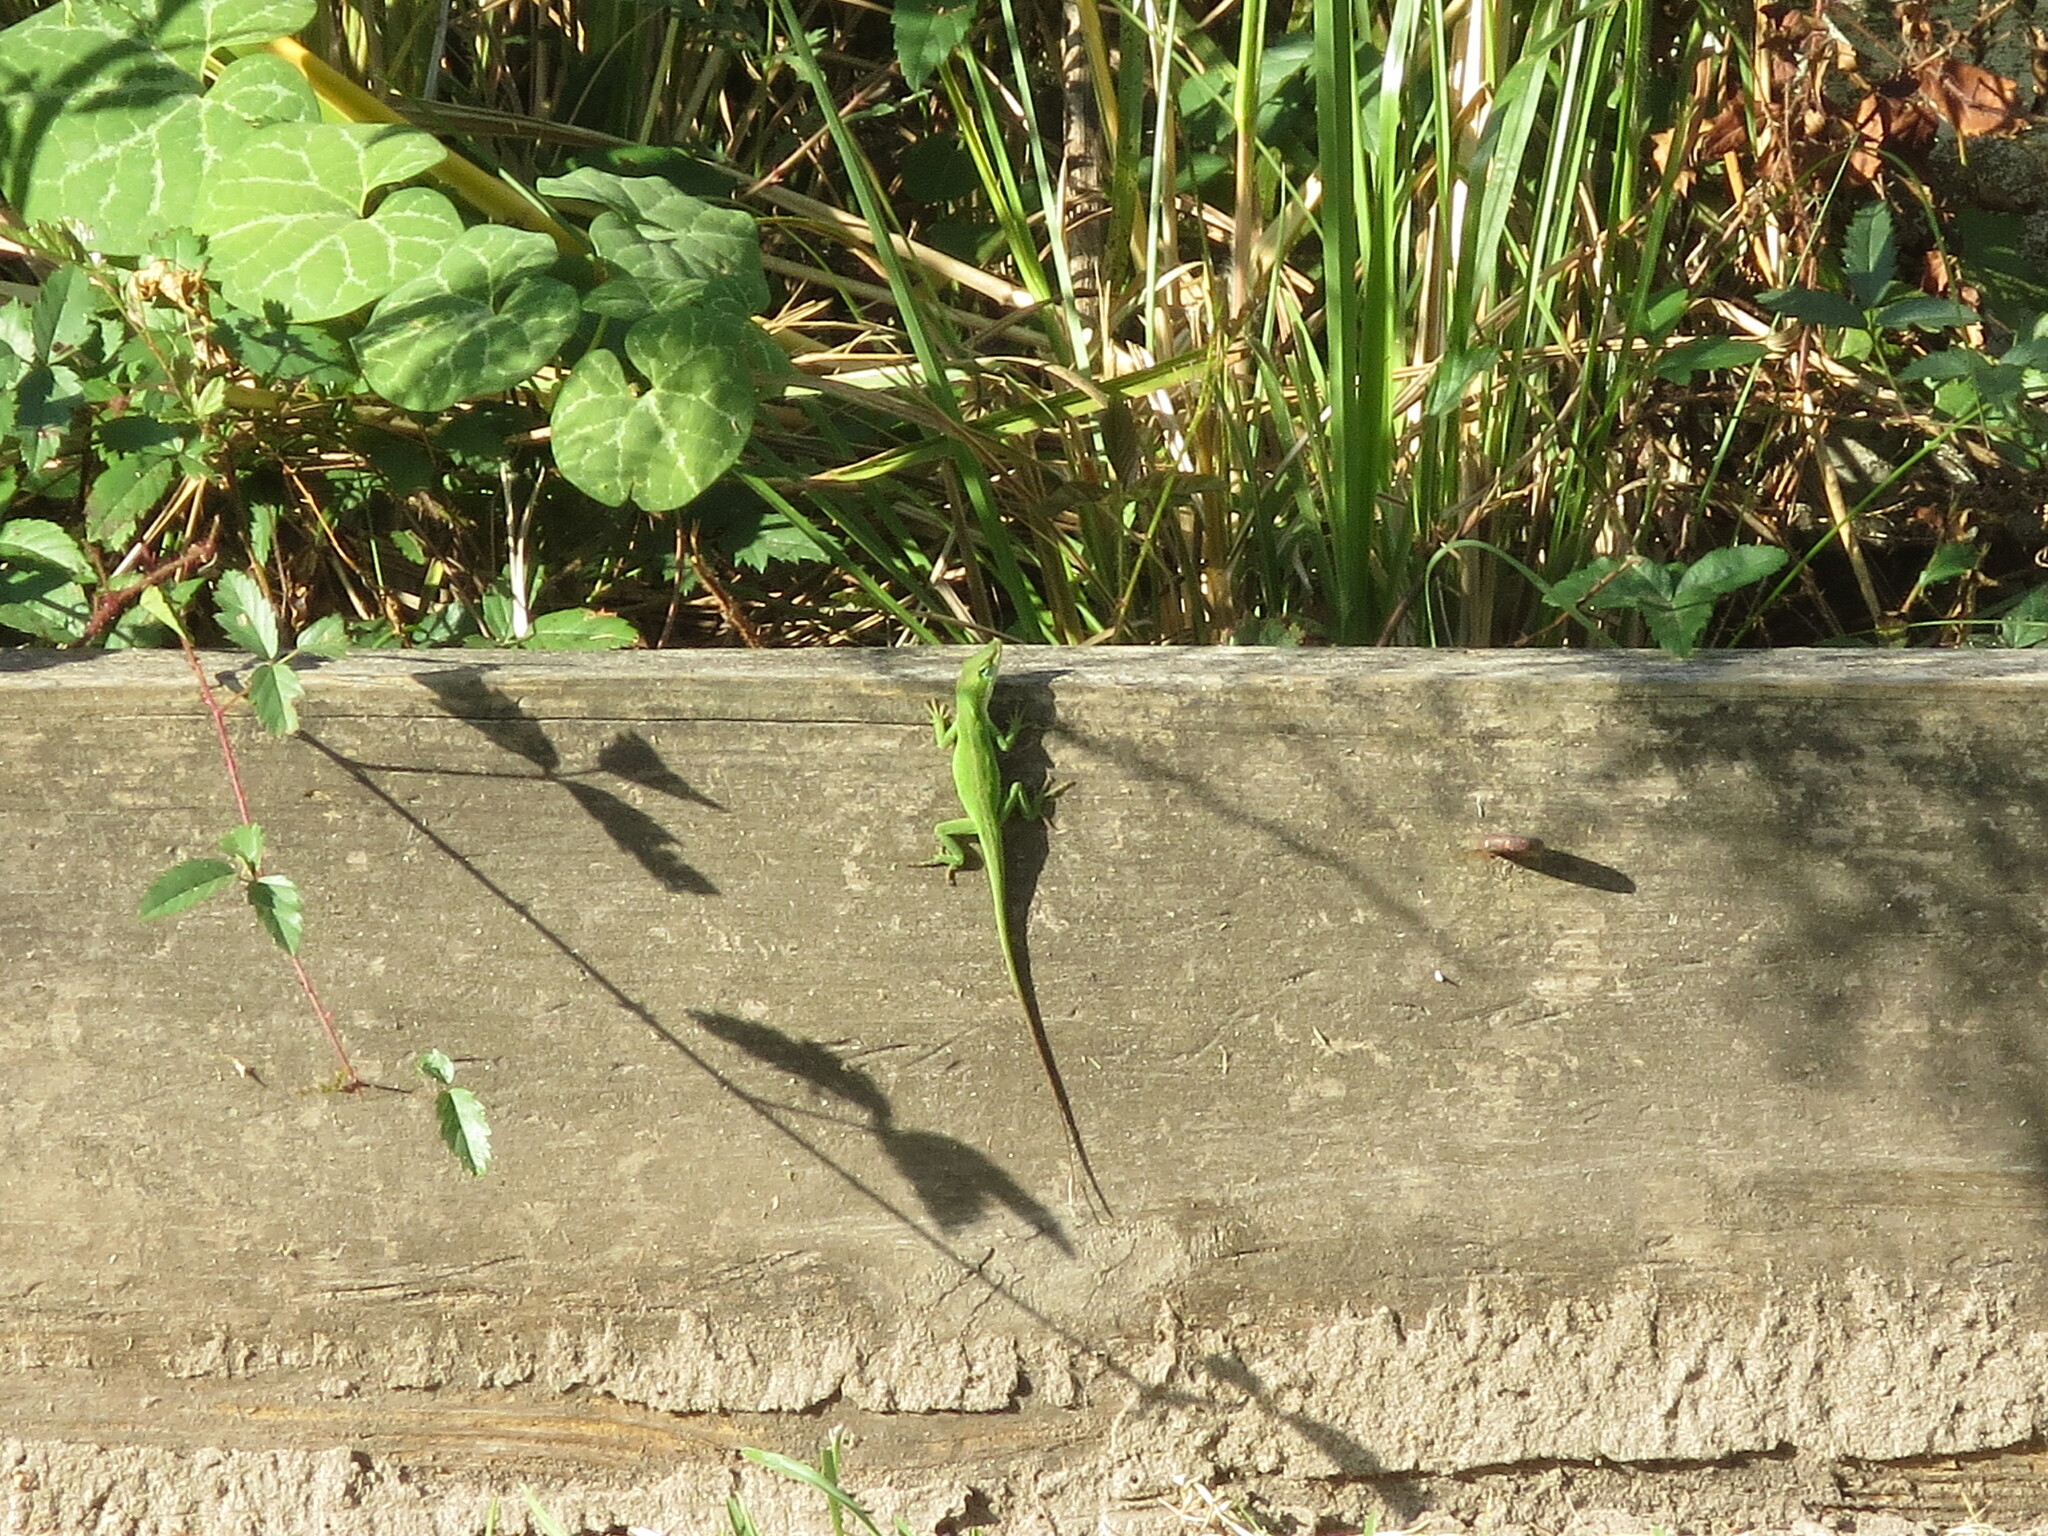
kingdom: Animalia
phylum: Chordata
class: Squamata
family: Dactyloidae
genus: Anolis
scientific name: Anolis carolinensis
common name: Green anole
